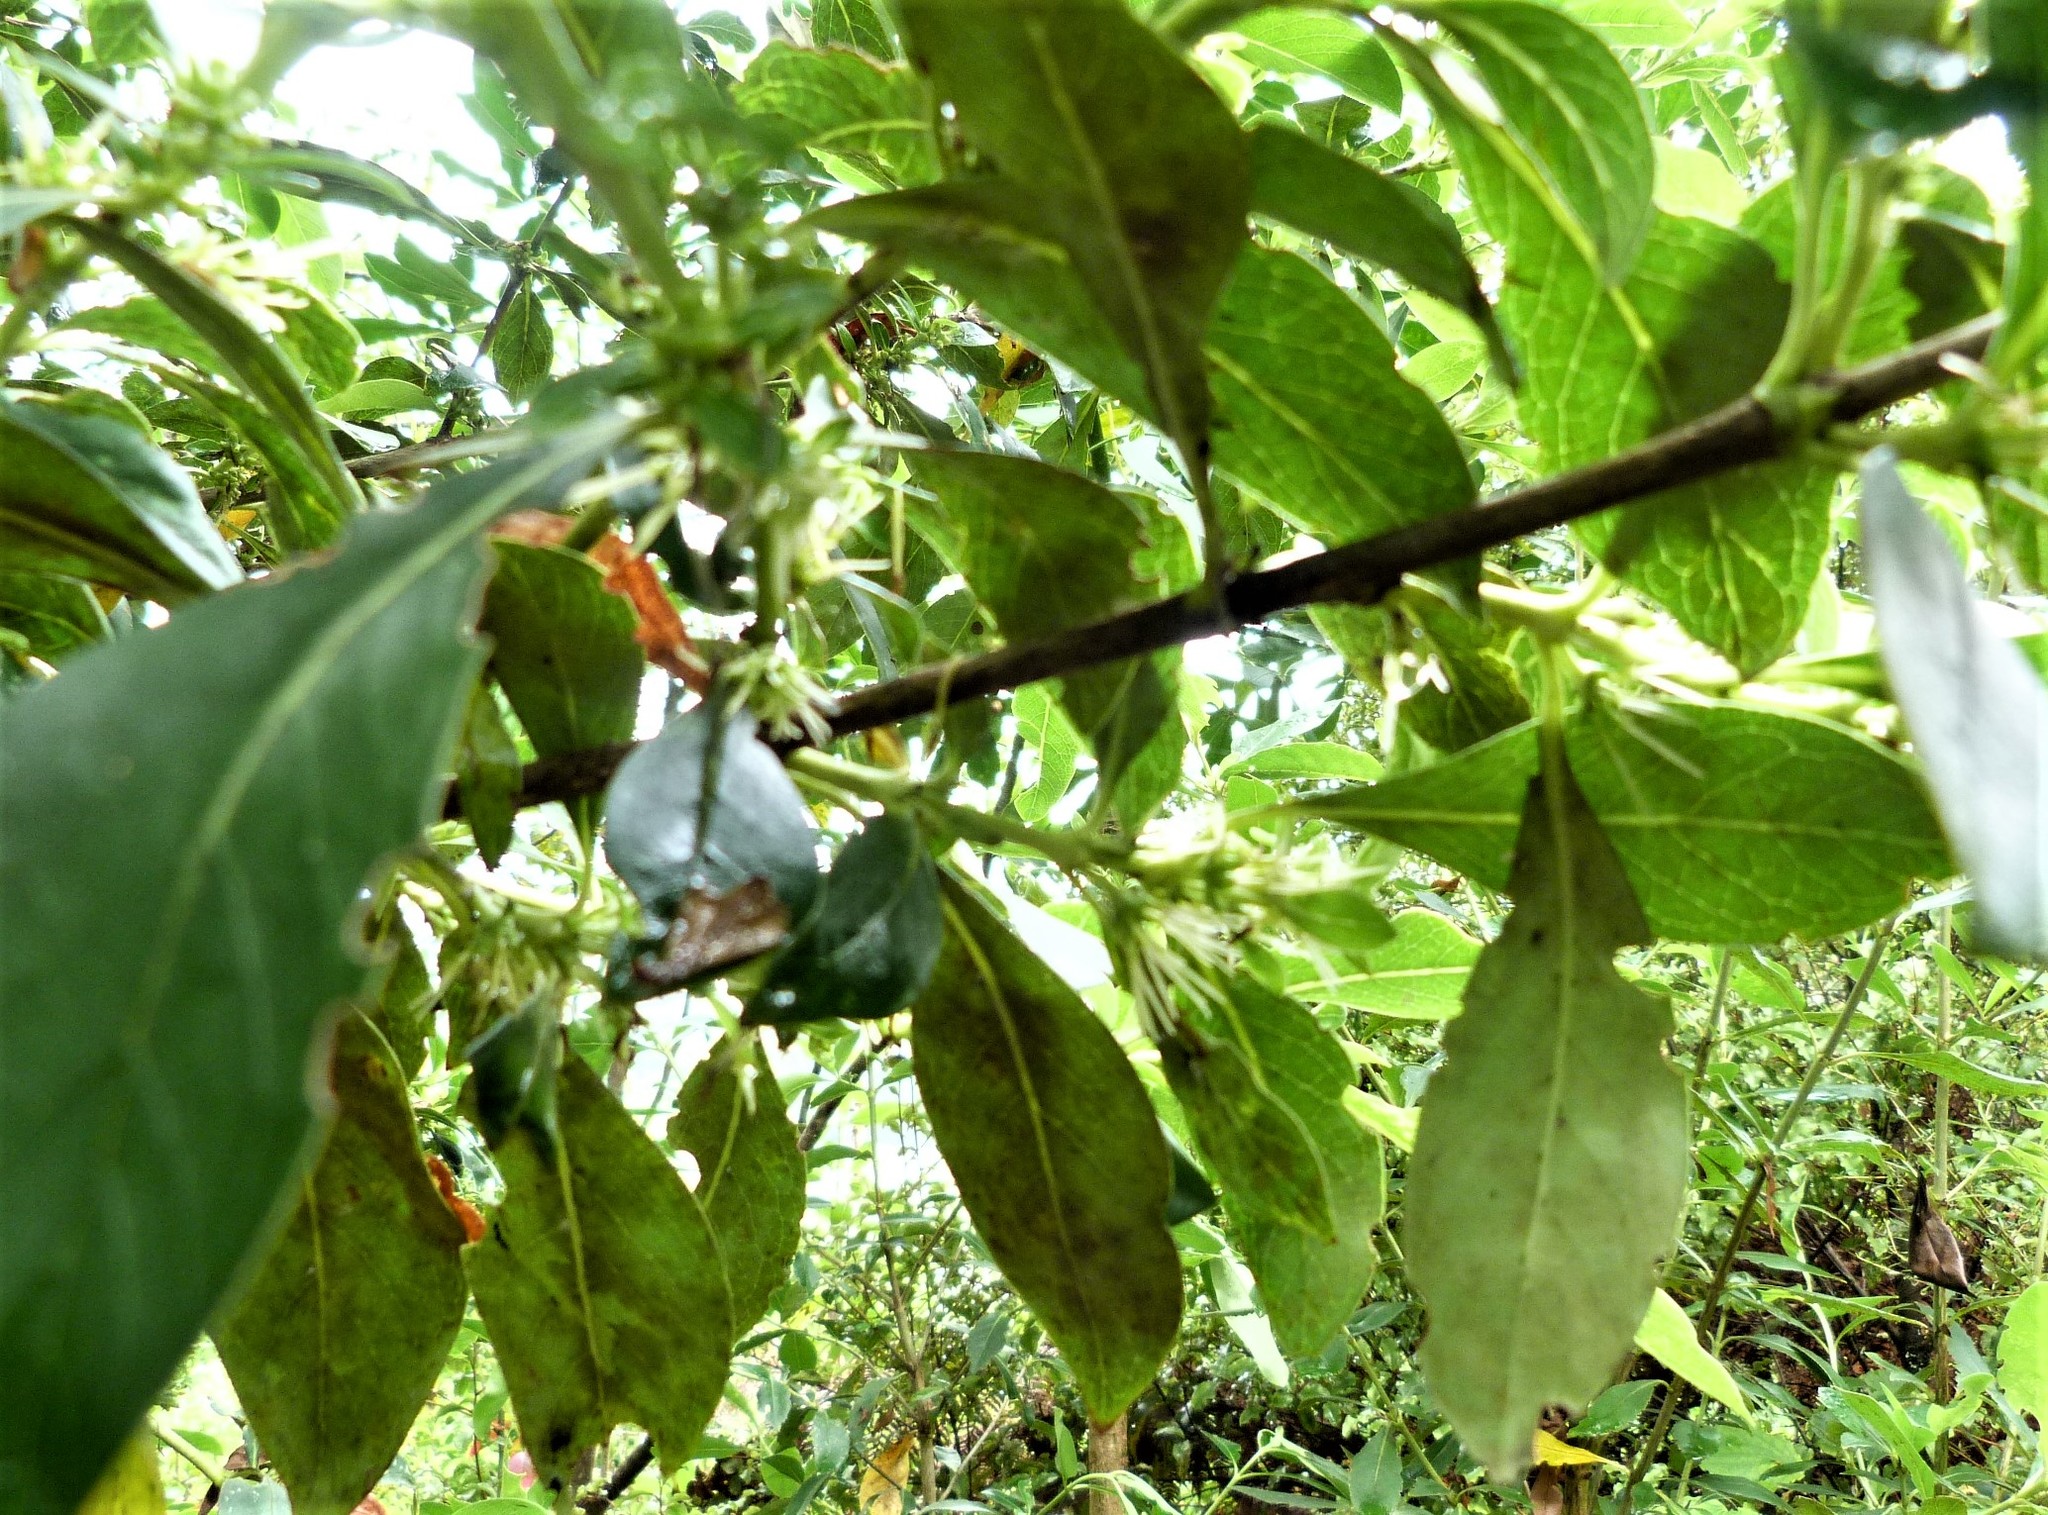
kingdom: Plantae
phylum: Tracheophyta
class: Magnoliopsida
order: Gentianales
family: Rubiaceae
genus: Coprosma
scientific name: Coprosma robusta
